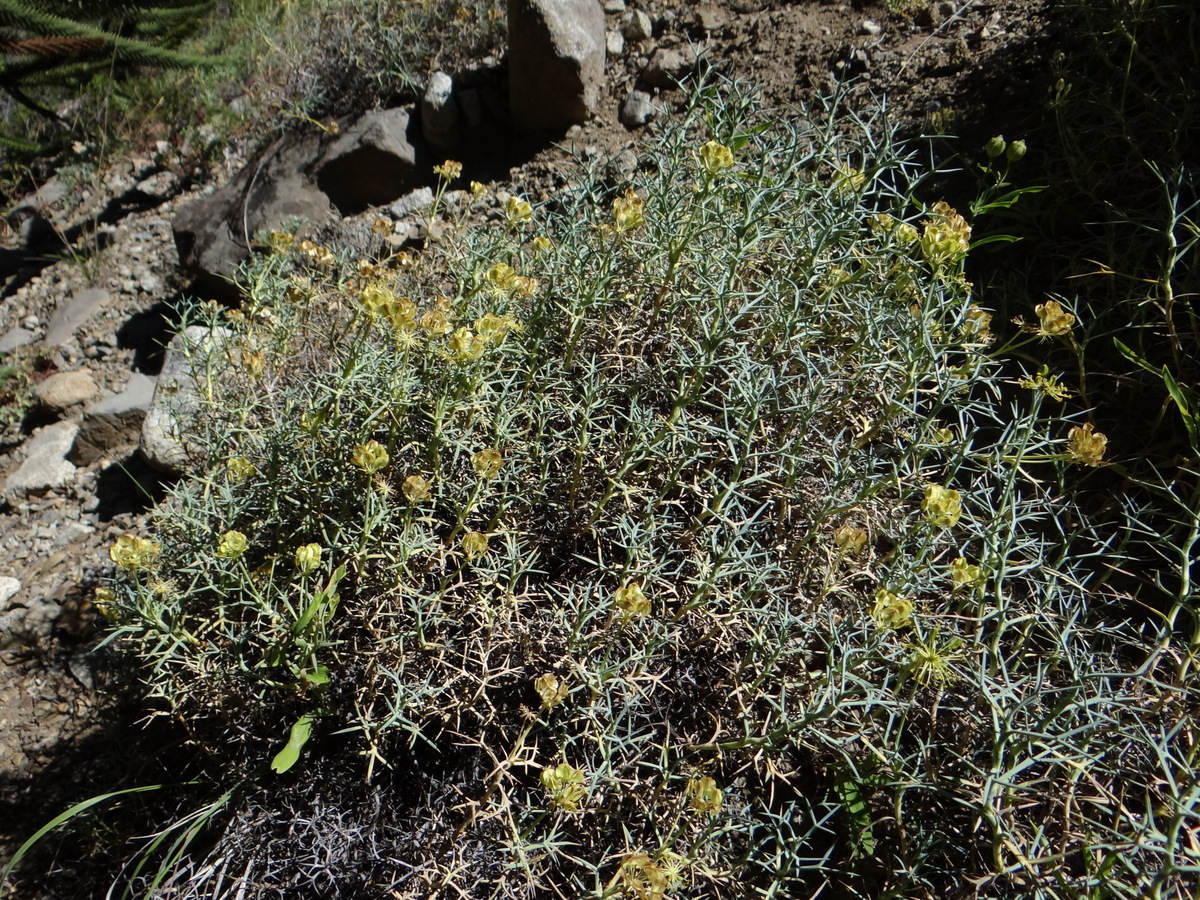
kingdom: Plantae
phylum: Tracheophyta
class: Magnoliopsida
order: Apiales
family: Apiaceae
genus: Azorella
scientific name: Azorella prolifera
